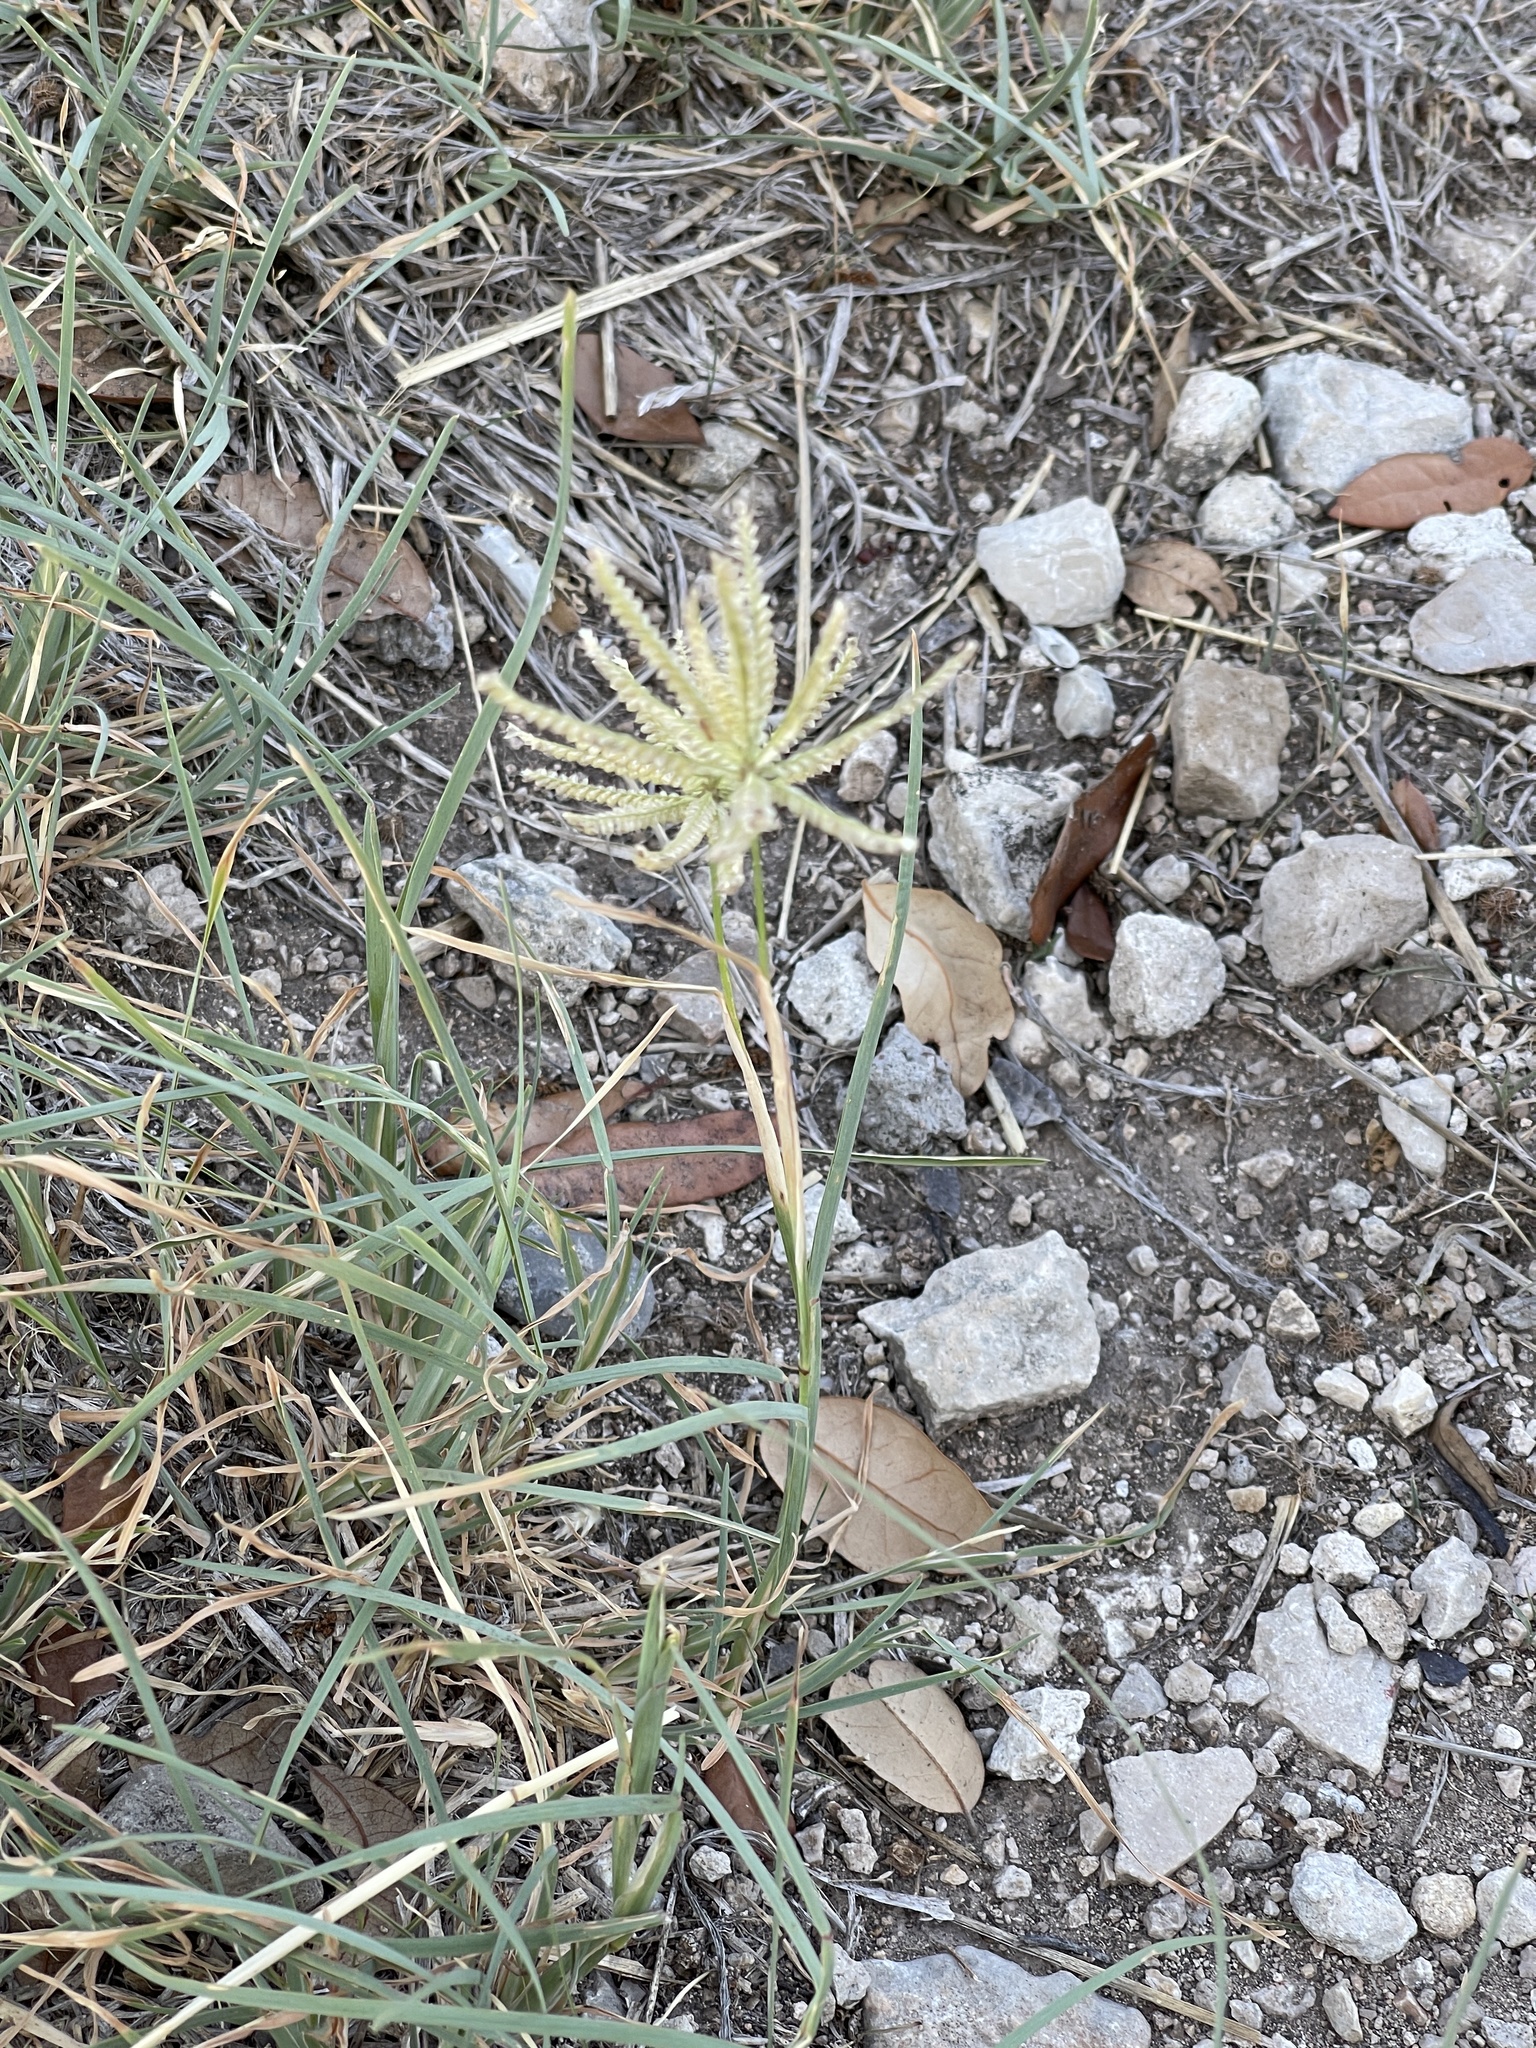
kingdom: Plantae
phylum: Tracheophyta
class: Liliopsida
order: Poales
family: Poaceae
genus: Chloris
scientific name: Chloris cucullata
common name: Hooded windmill grass
